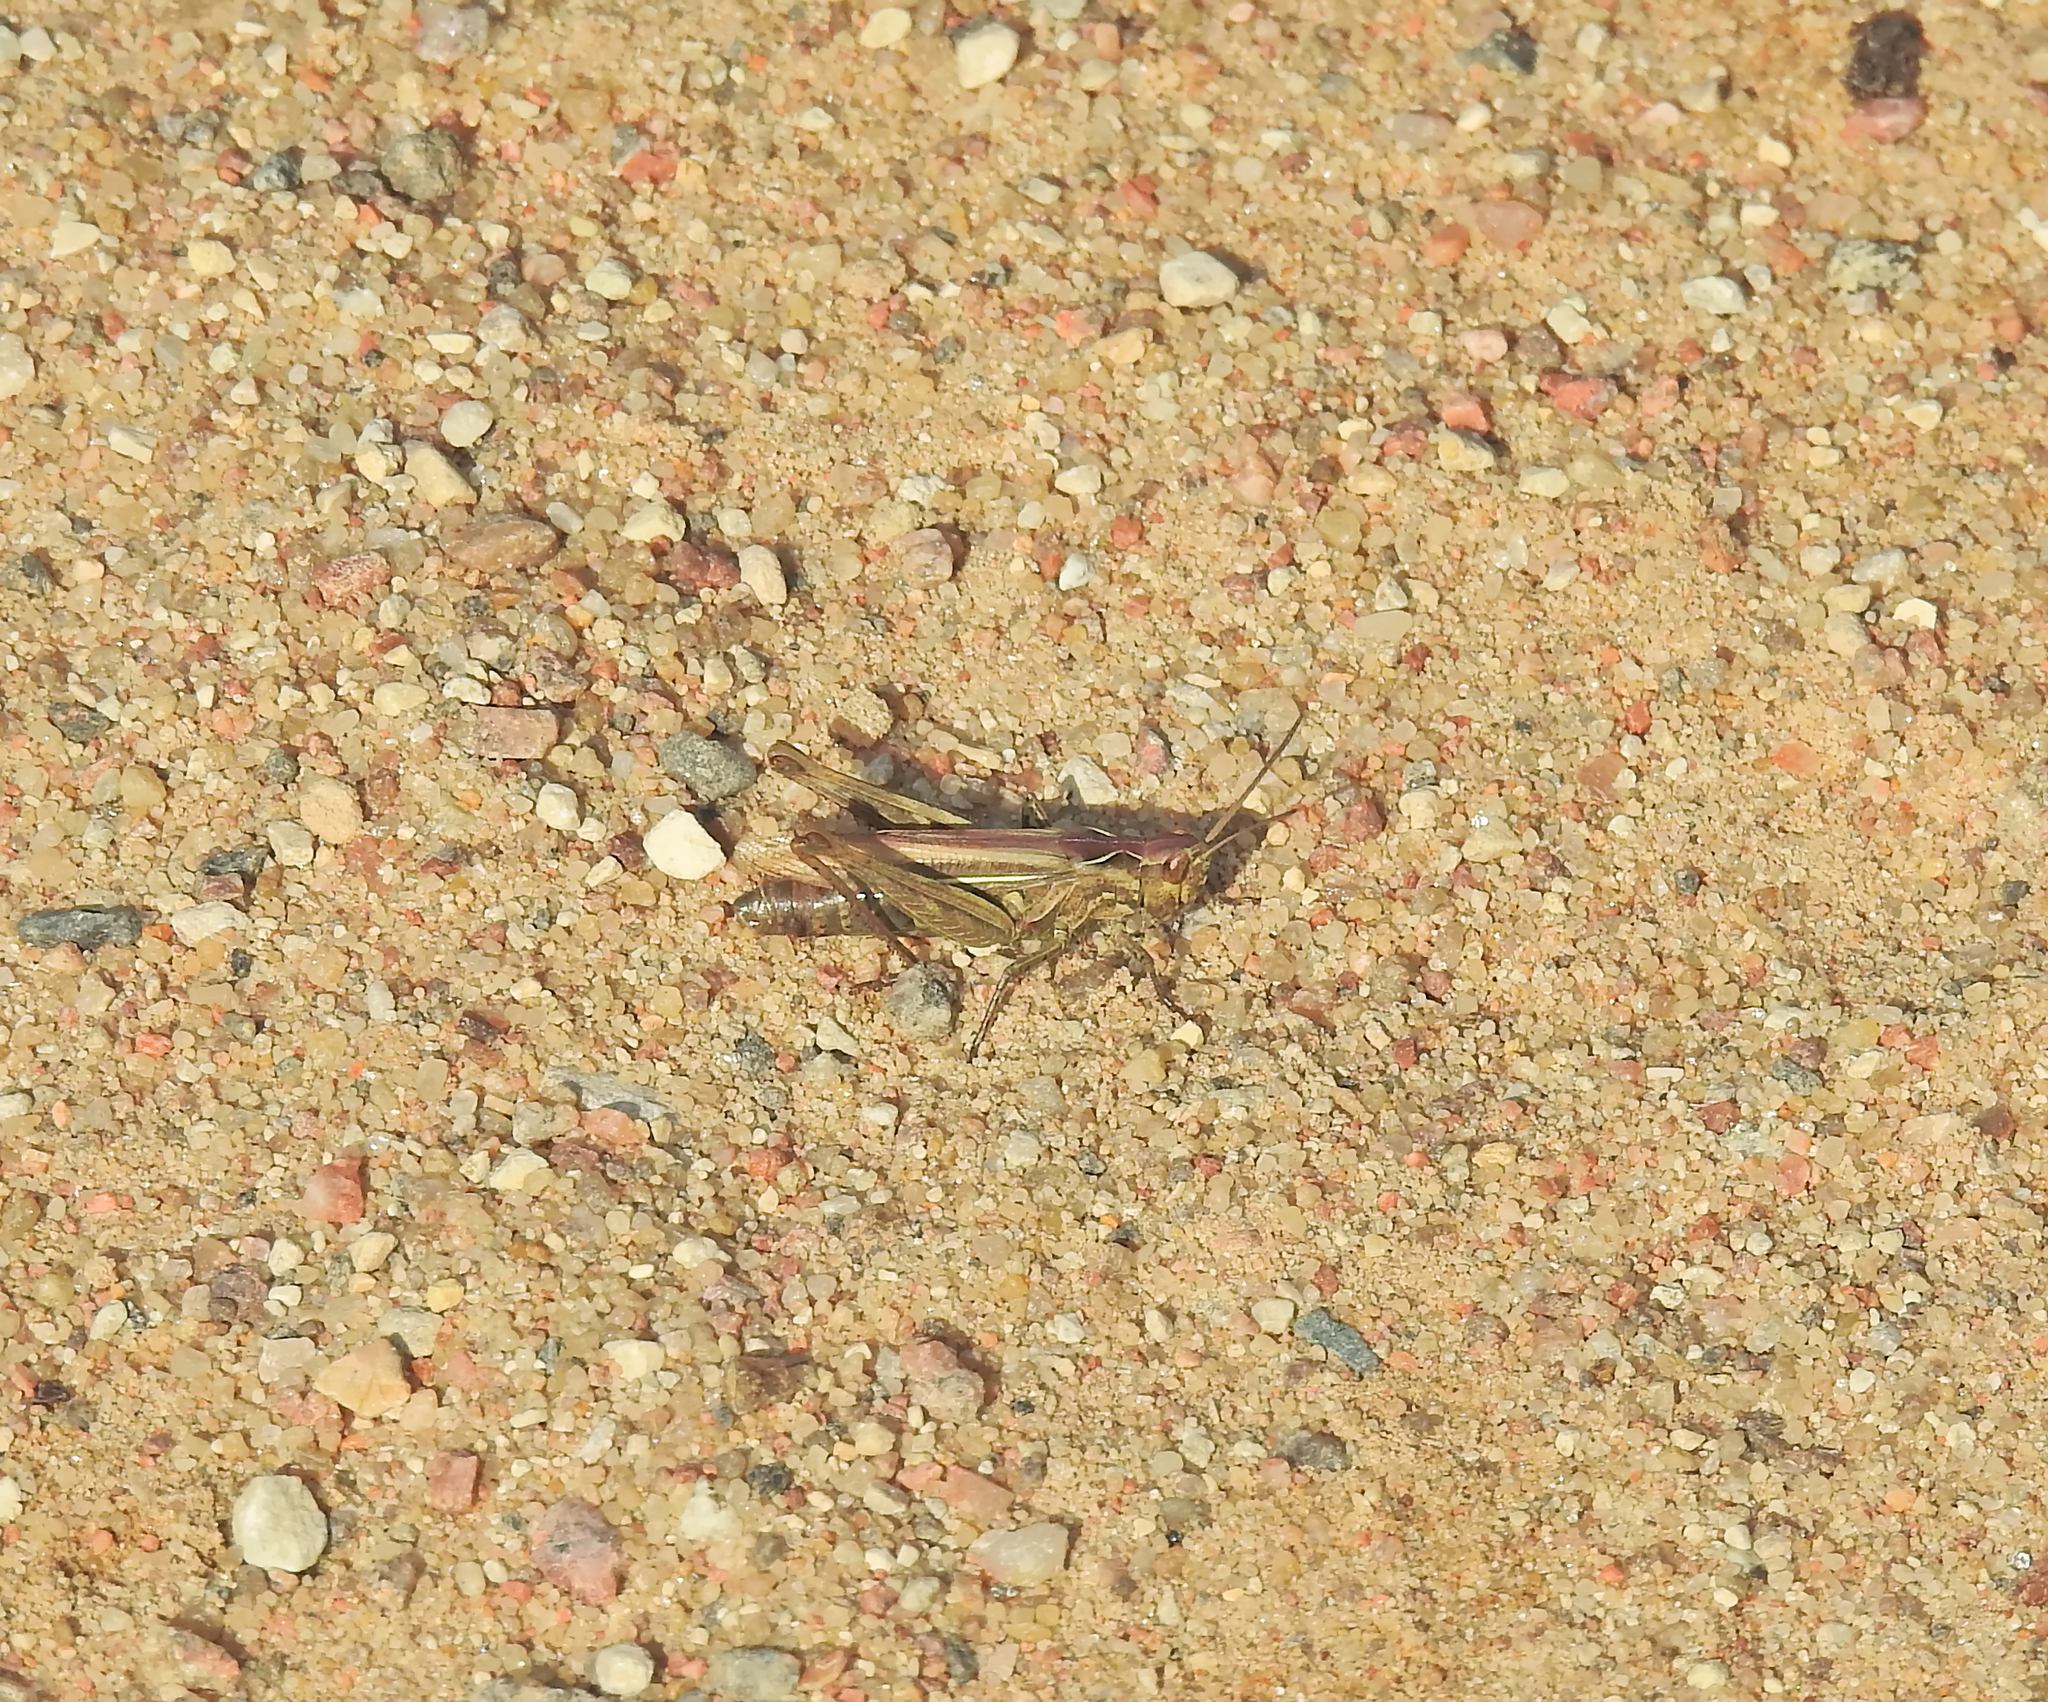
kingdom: Animalia
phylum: Arthropoda
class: Insecta
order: Orthoptera
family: Acrididae
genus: Glyptobothrus
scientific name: Glyptobothrus
